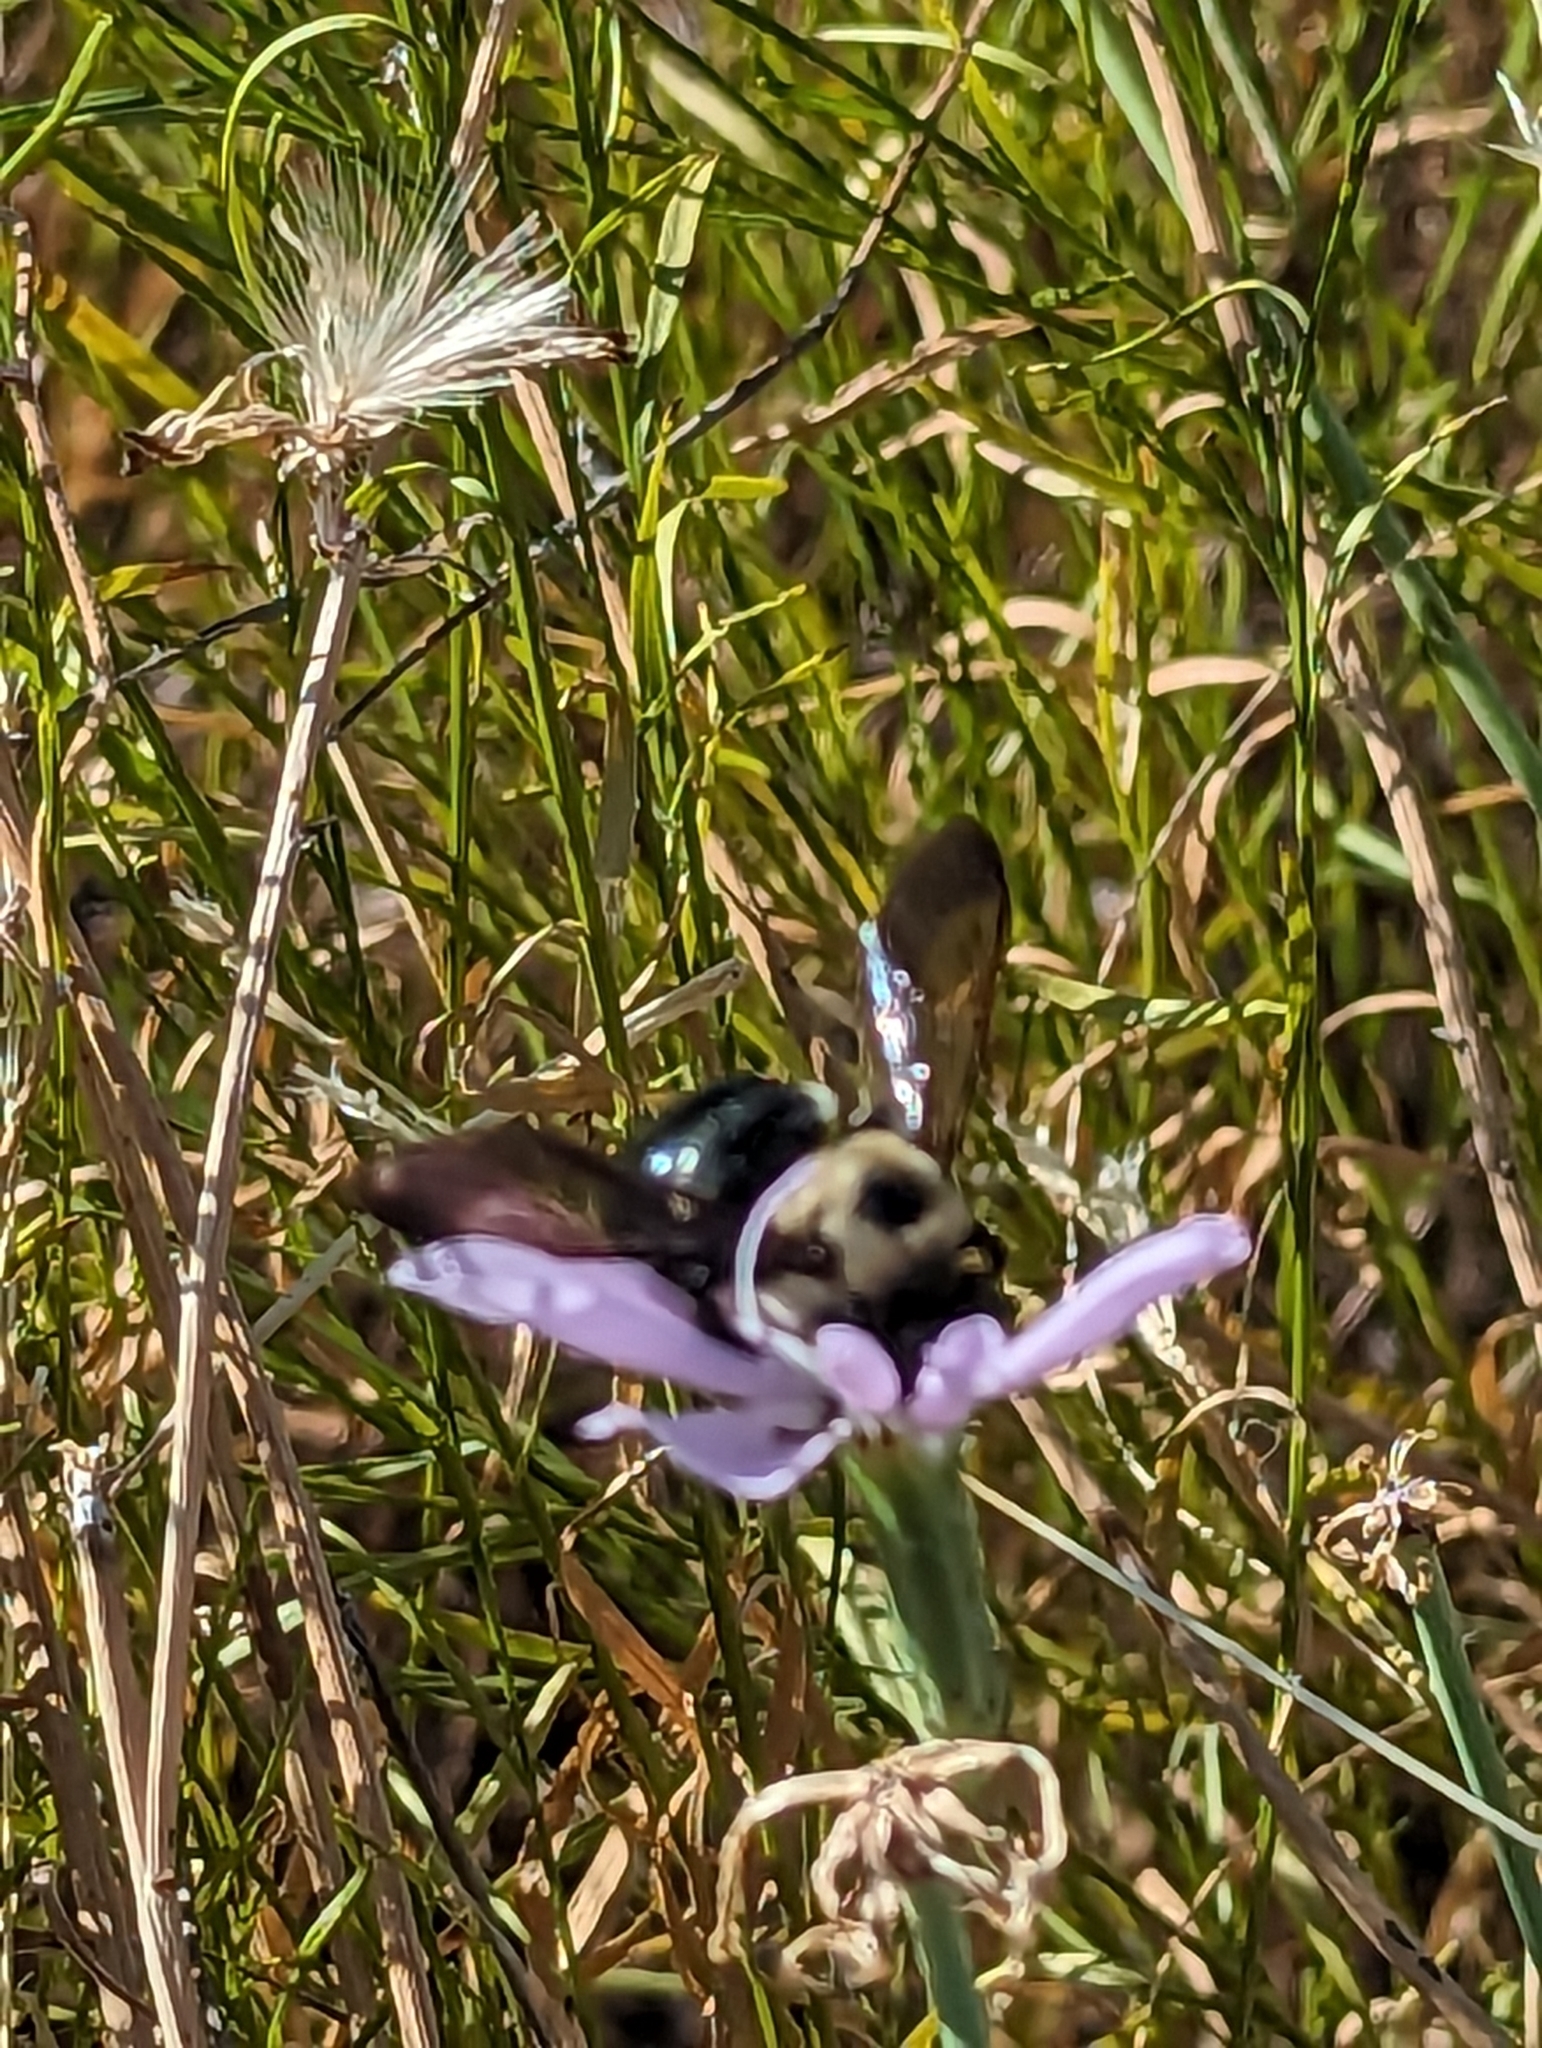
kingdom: Animalia
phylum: Arthropoda
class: Insecta
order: Hymenoptera
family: Apidae
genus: Xylocopa
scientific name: Xylocopa virginica
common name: Carpenter bee
